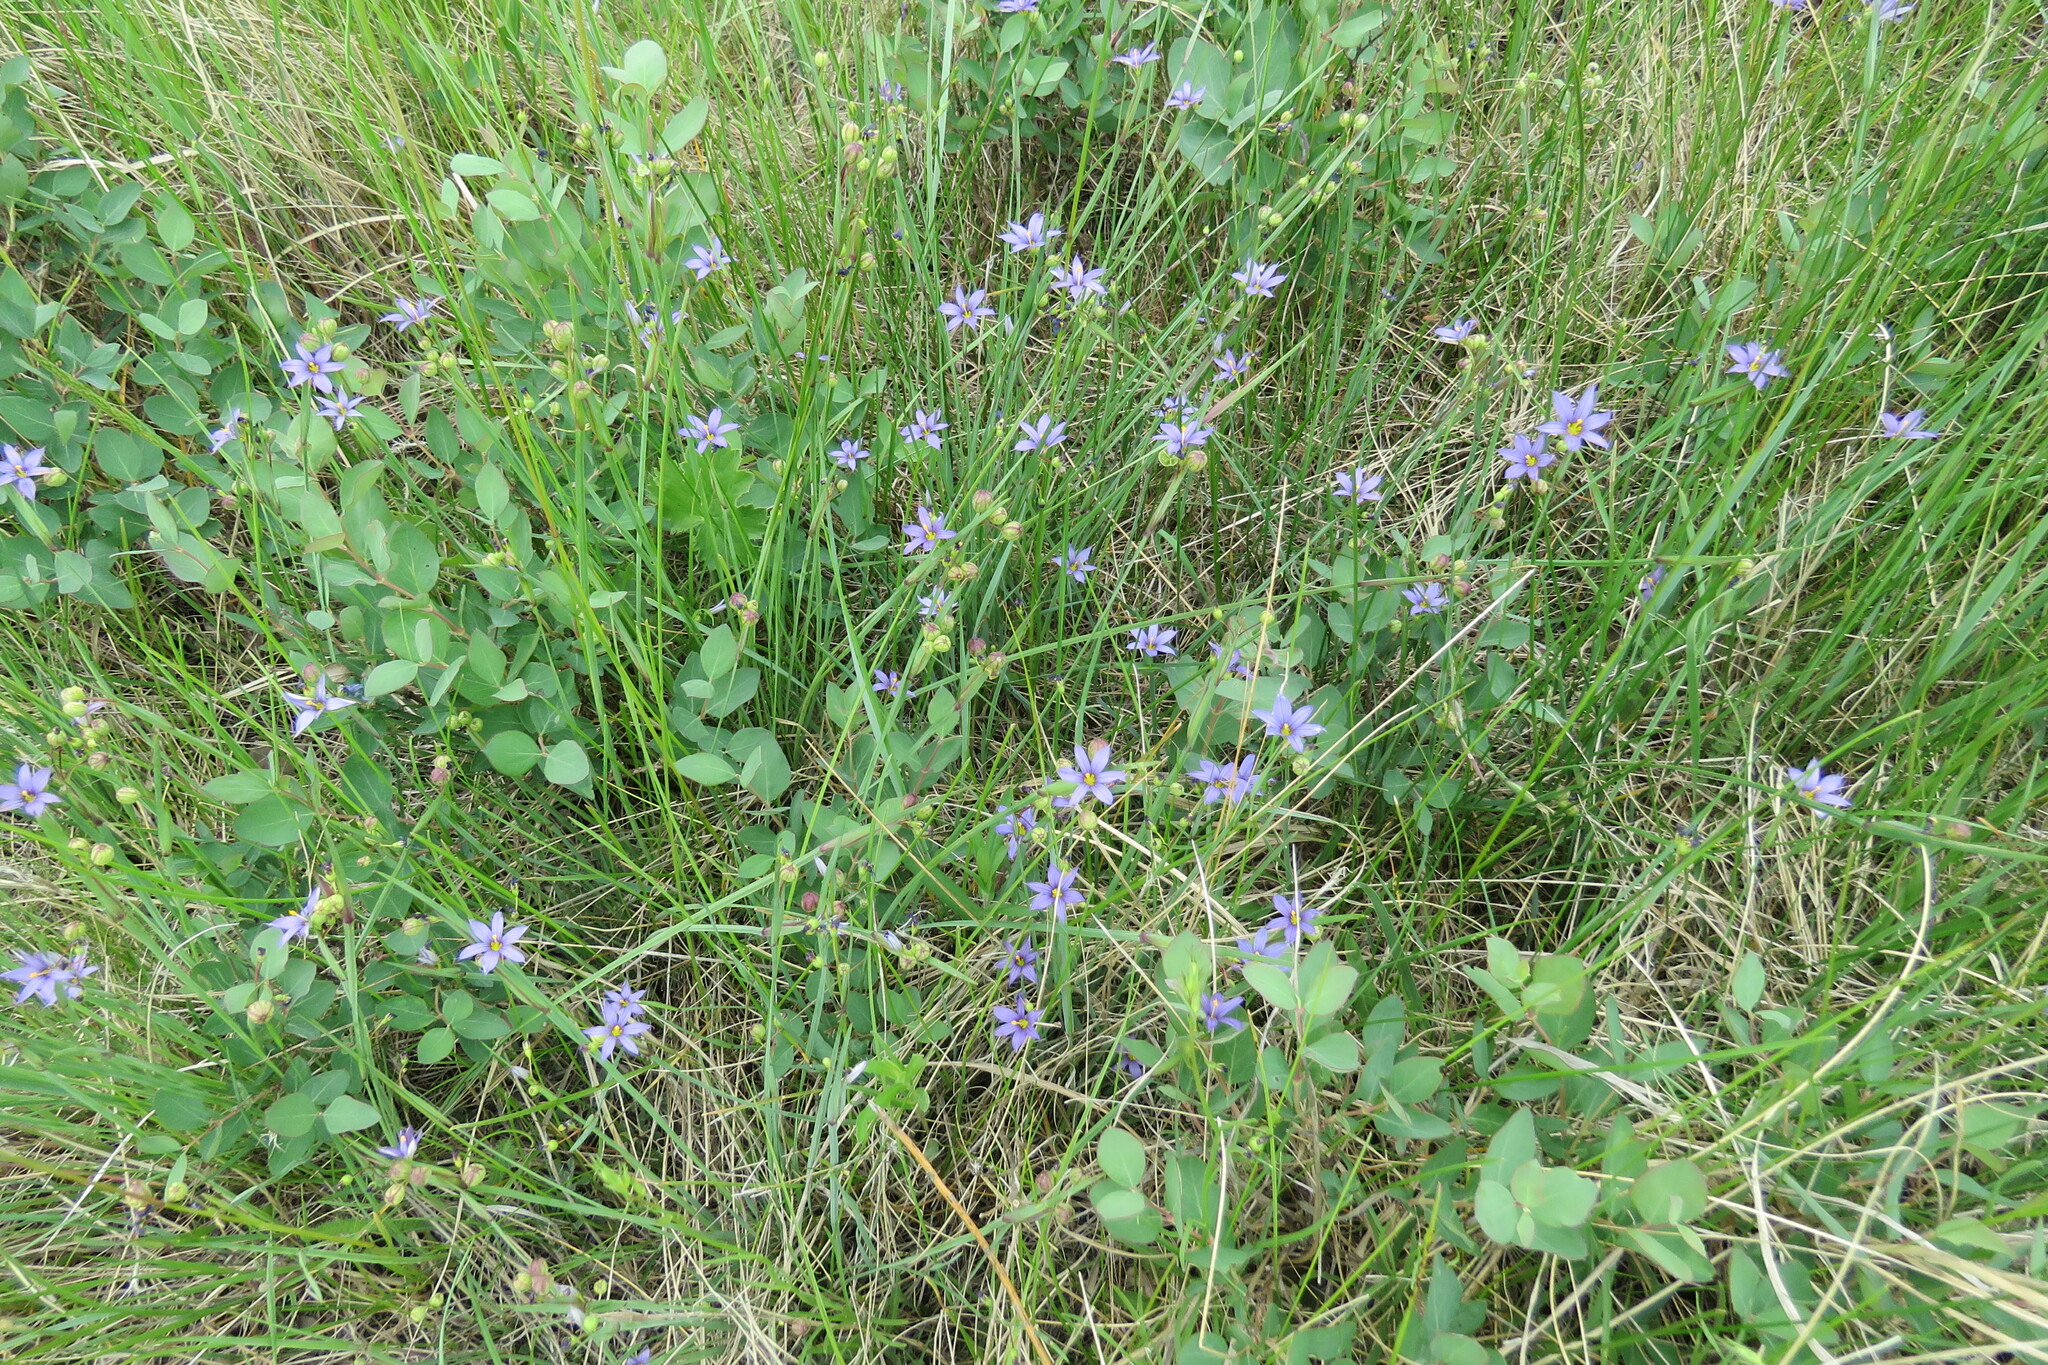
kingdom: Plantae
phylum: Tracheophyta
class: Liliopsida
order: Asparagales
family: Iridaceae
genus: Sisyrinchium
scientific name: Sisyrinchium montanum
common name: American blue-eyed-grass
